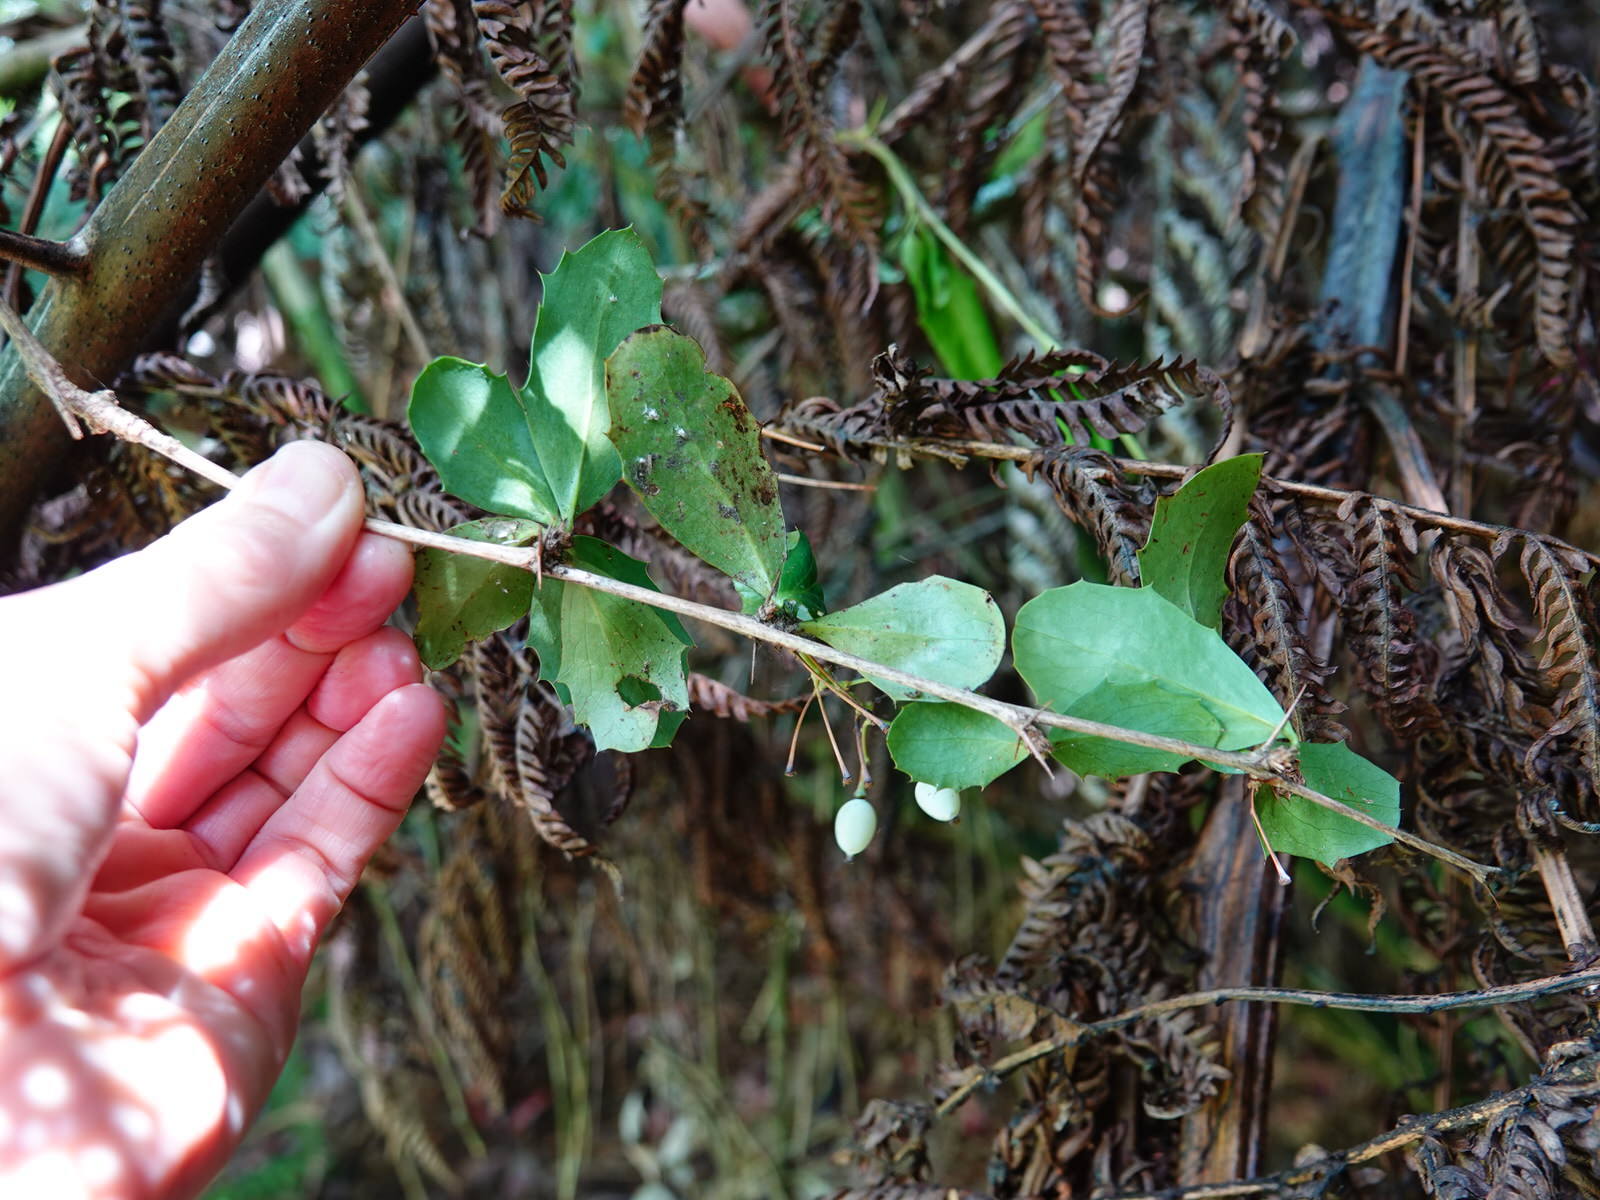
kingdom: Plantae
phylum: Tracheophyta
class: Magnoliopsida
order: Ranunculales
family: Berberidaceae
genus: Berberis
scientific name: Berberis glaucocarpa
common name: Great barberry
